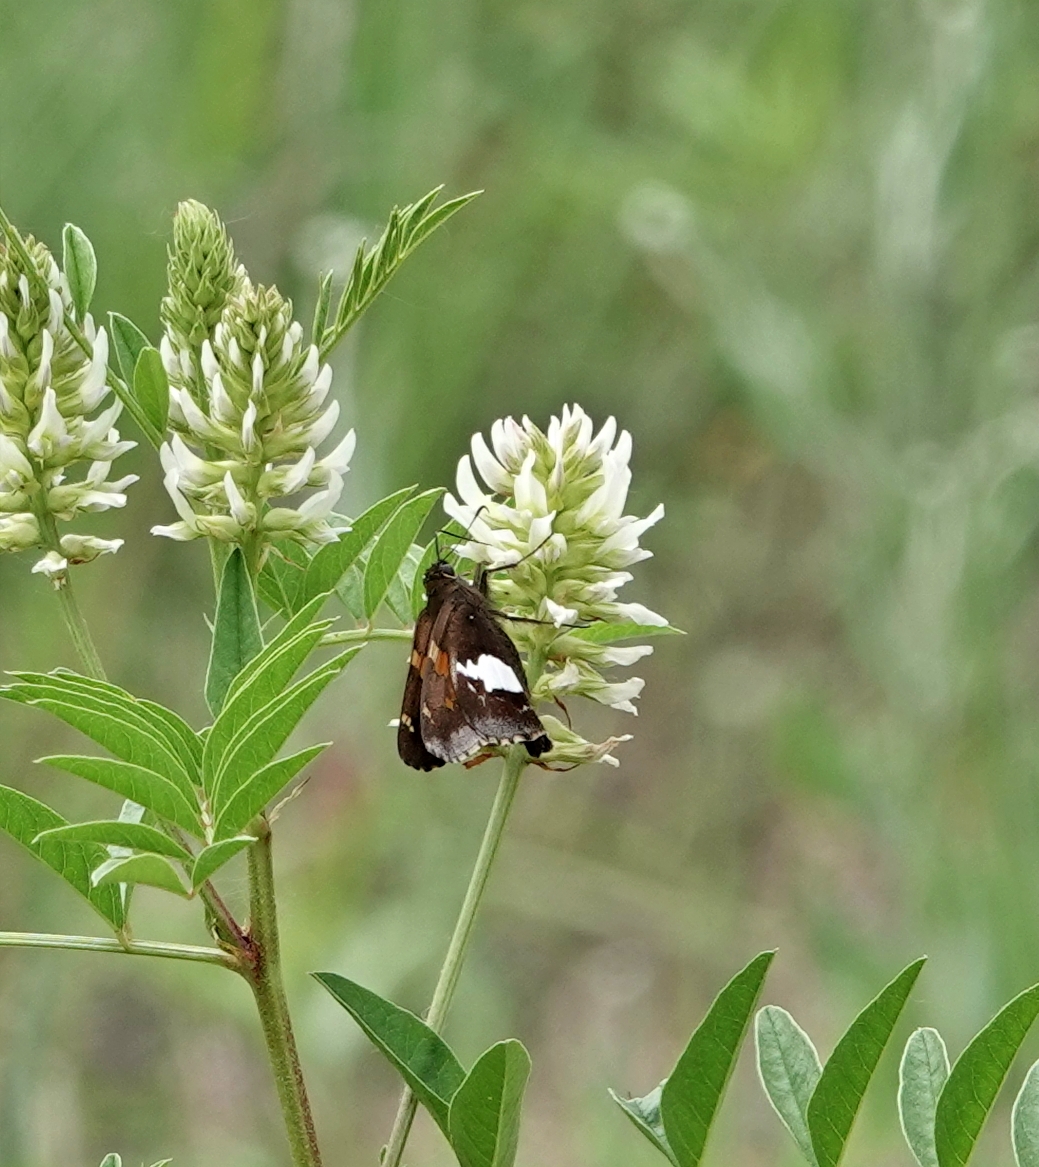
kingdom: Animalia
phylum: Arthropoda
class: Insecta
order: Lepidoptera
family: Hesperiidae
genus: Epargyreus
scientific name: Epargyreus clarus
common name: Silver-spotted skipper
